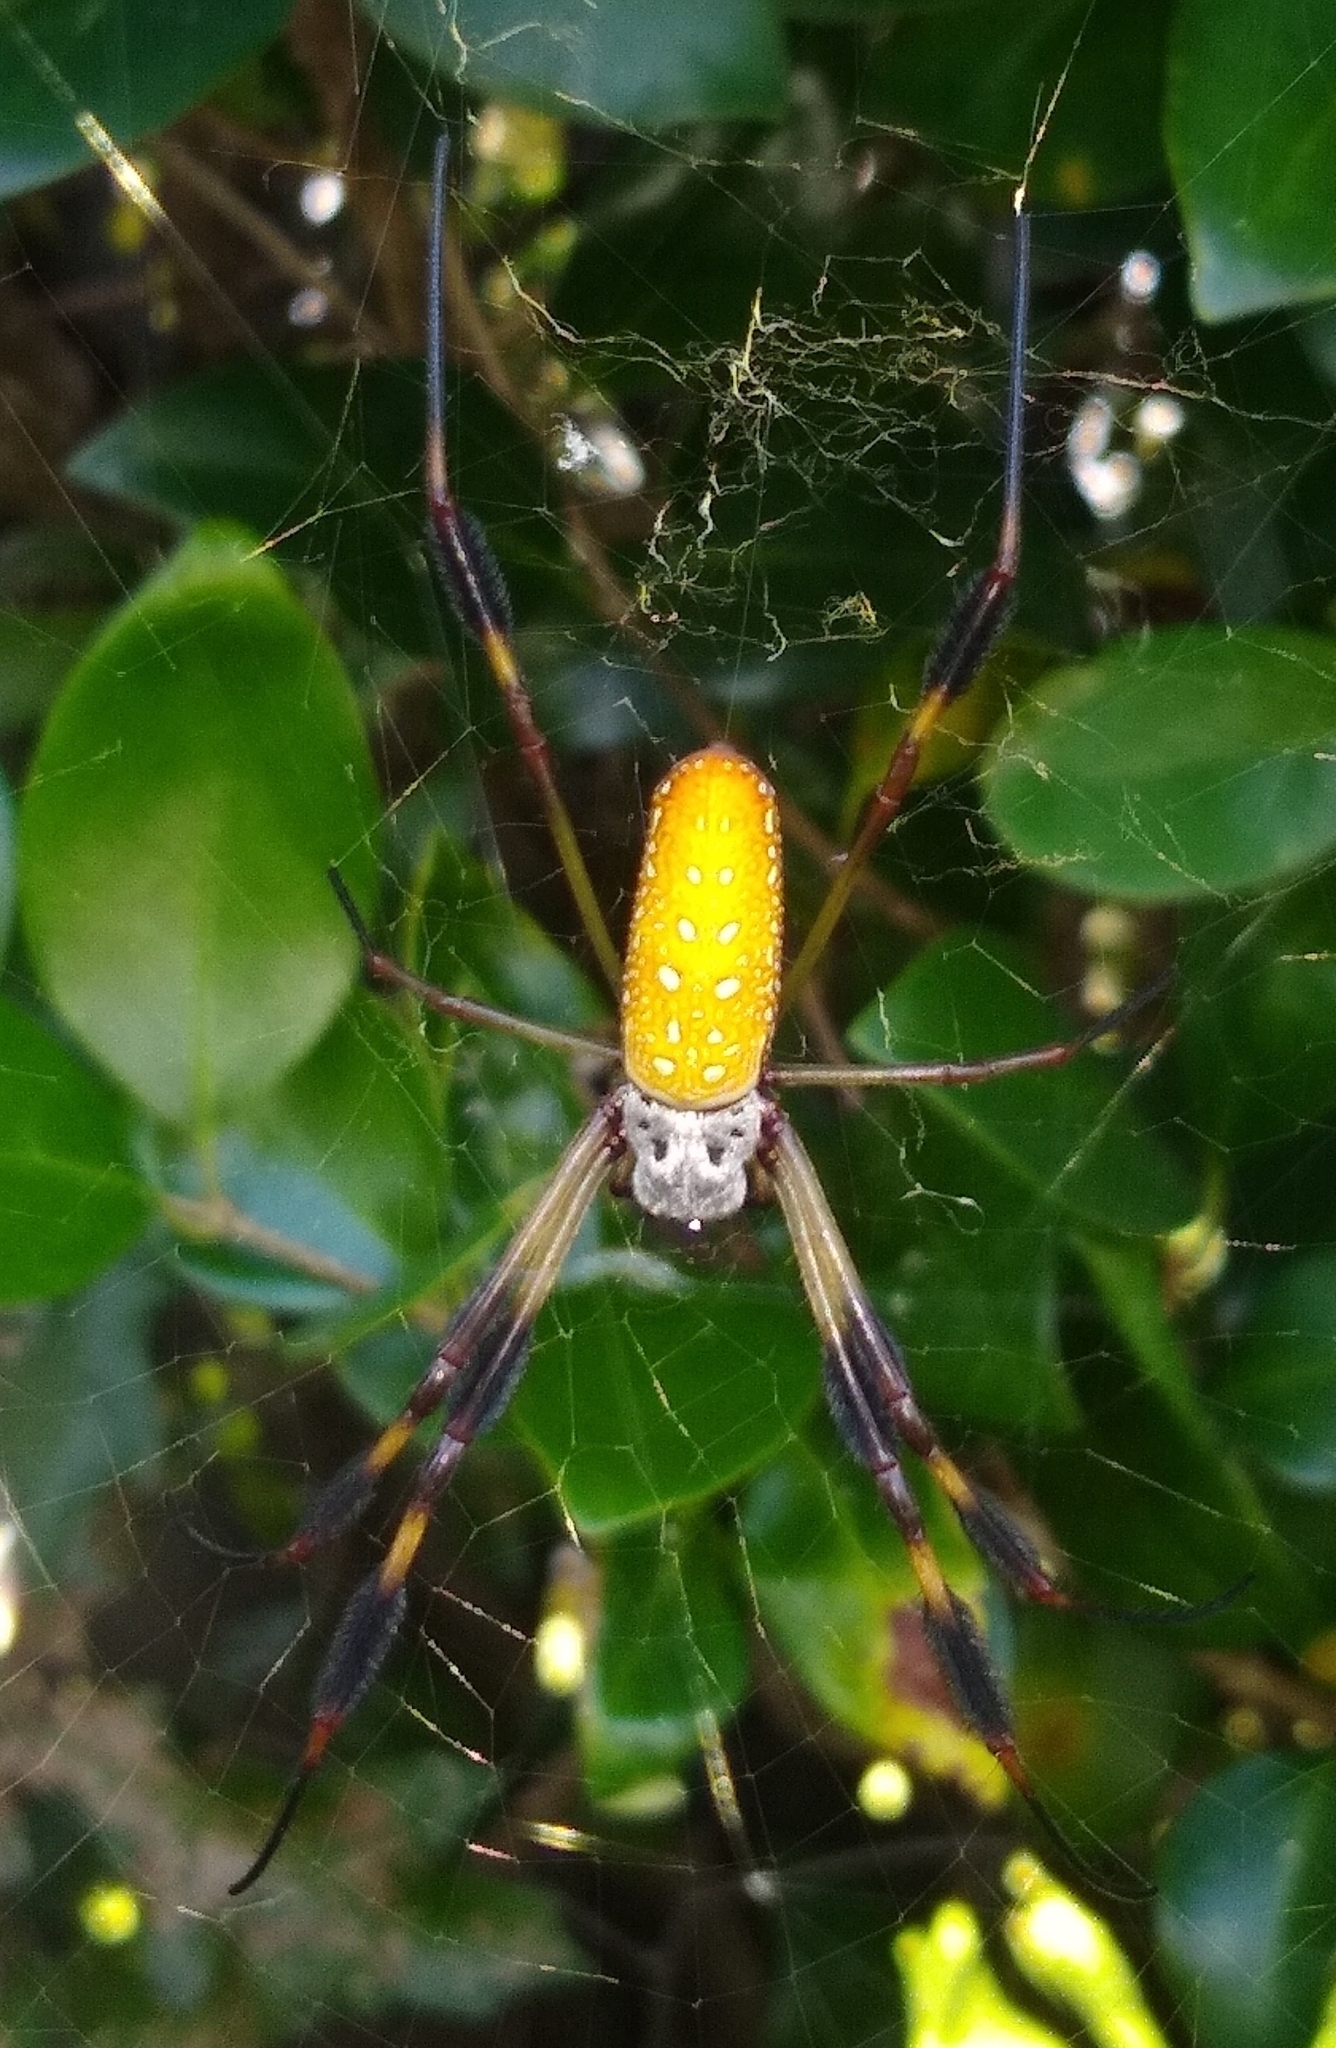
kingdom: Animalia
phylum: Arthropoda
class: Arachnida
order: Araneae
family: Araneidae
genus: Trichonephila
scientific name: Trichonephila clavipes
